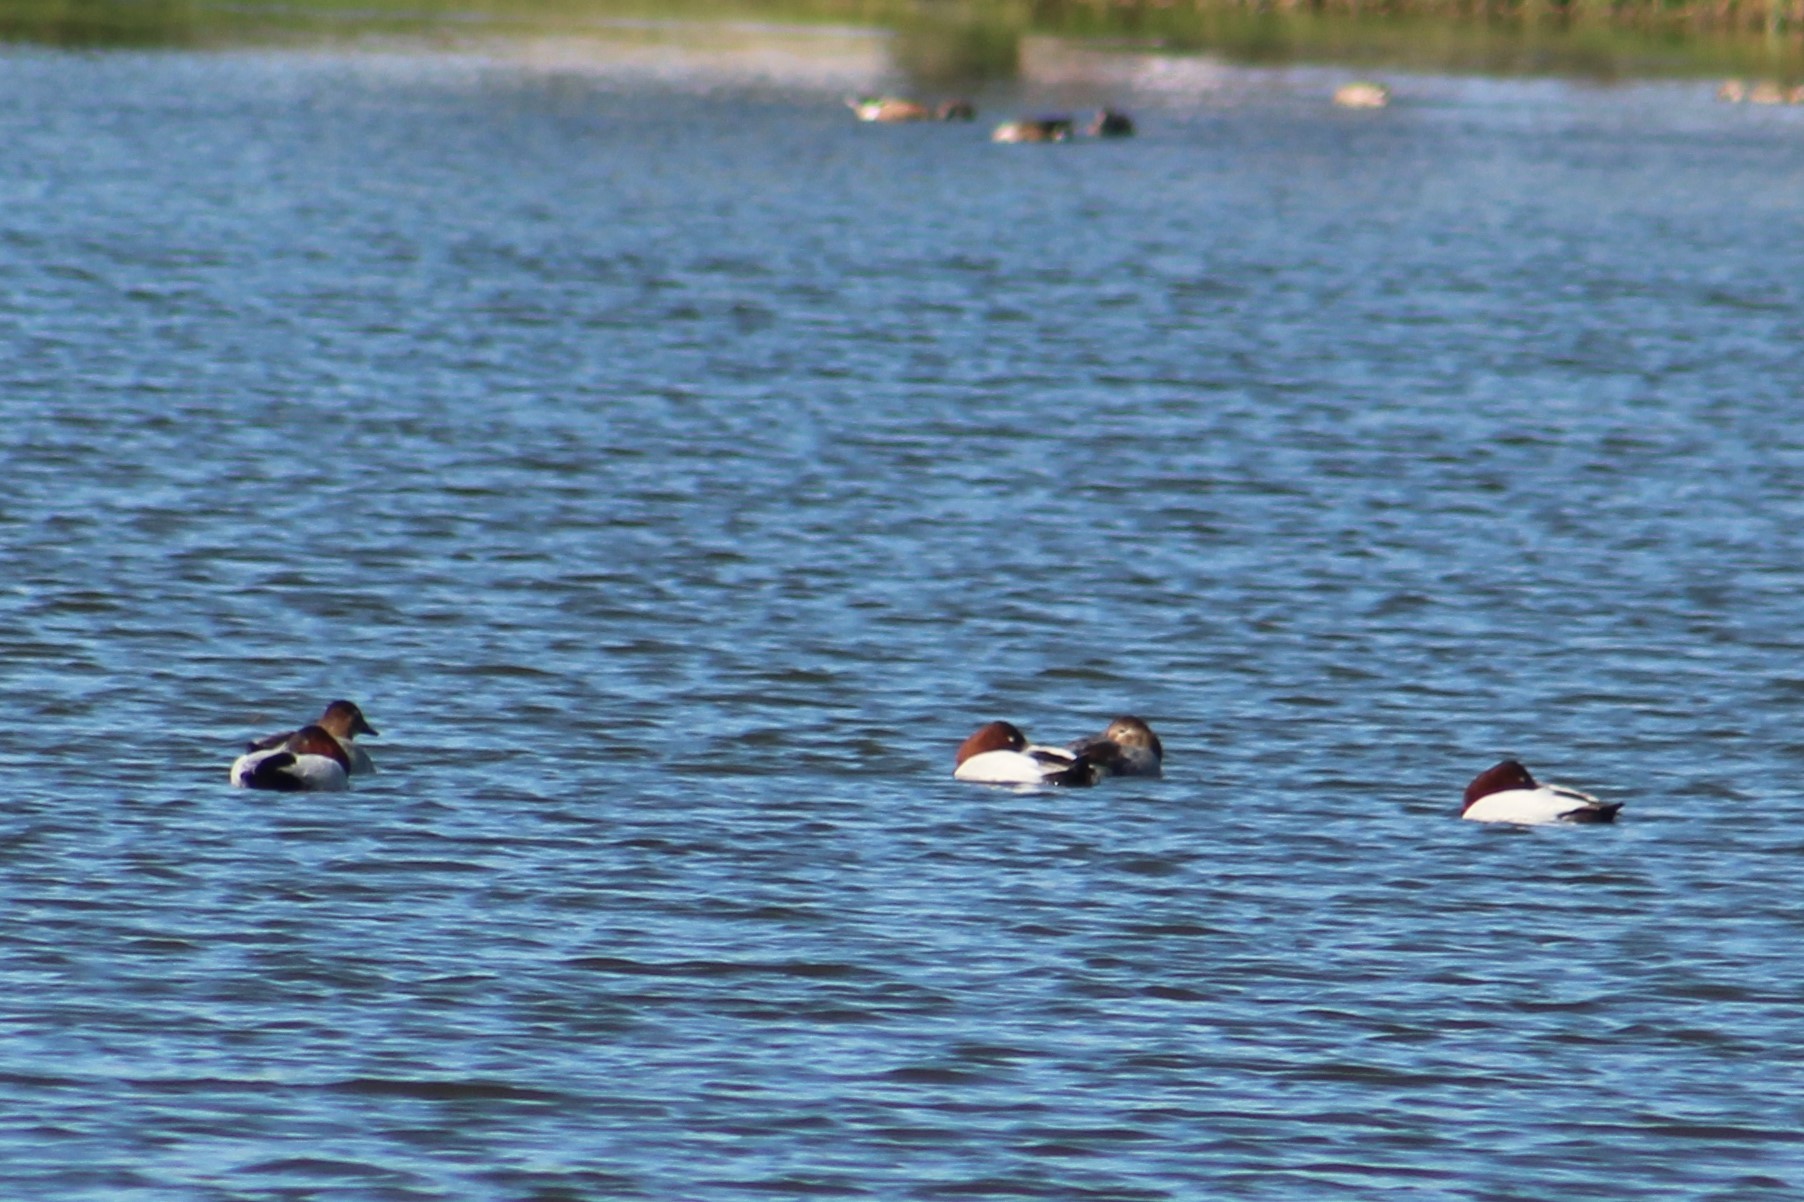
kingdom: Animalia
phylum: Chordata
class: Aves
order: Anseriformes
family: Anatidae
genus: Aythya
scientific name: Aythya valisineria
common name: Canvasback
